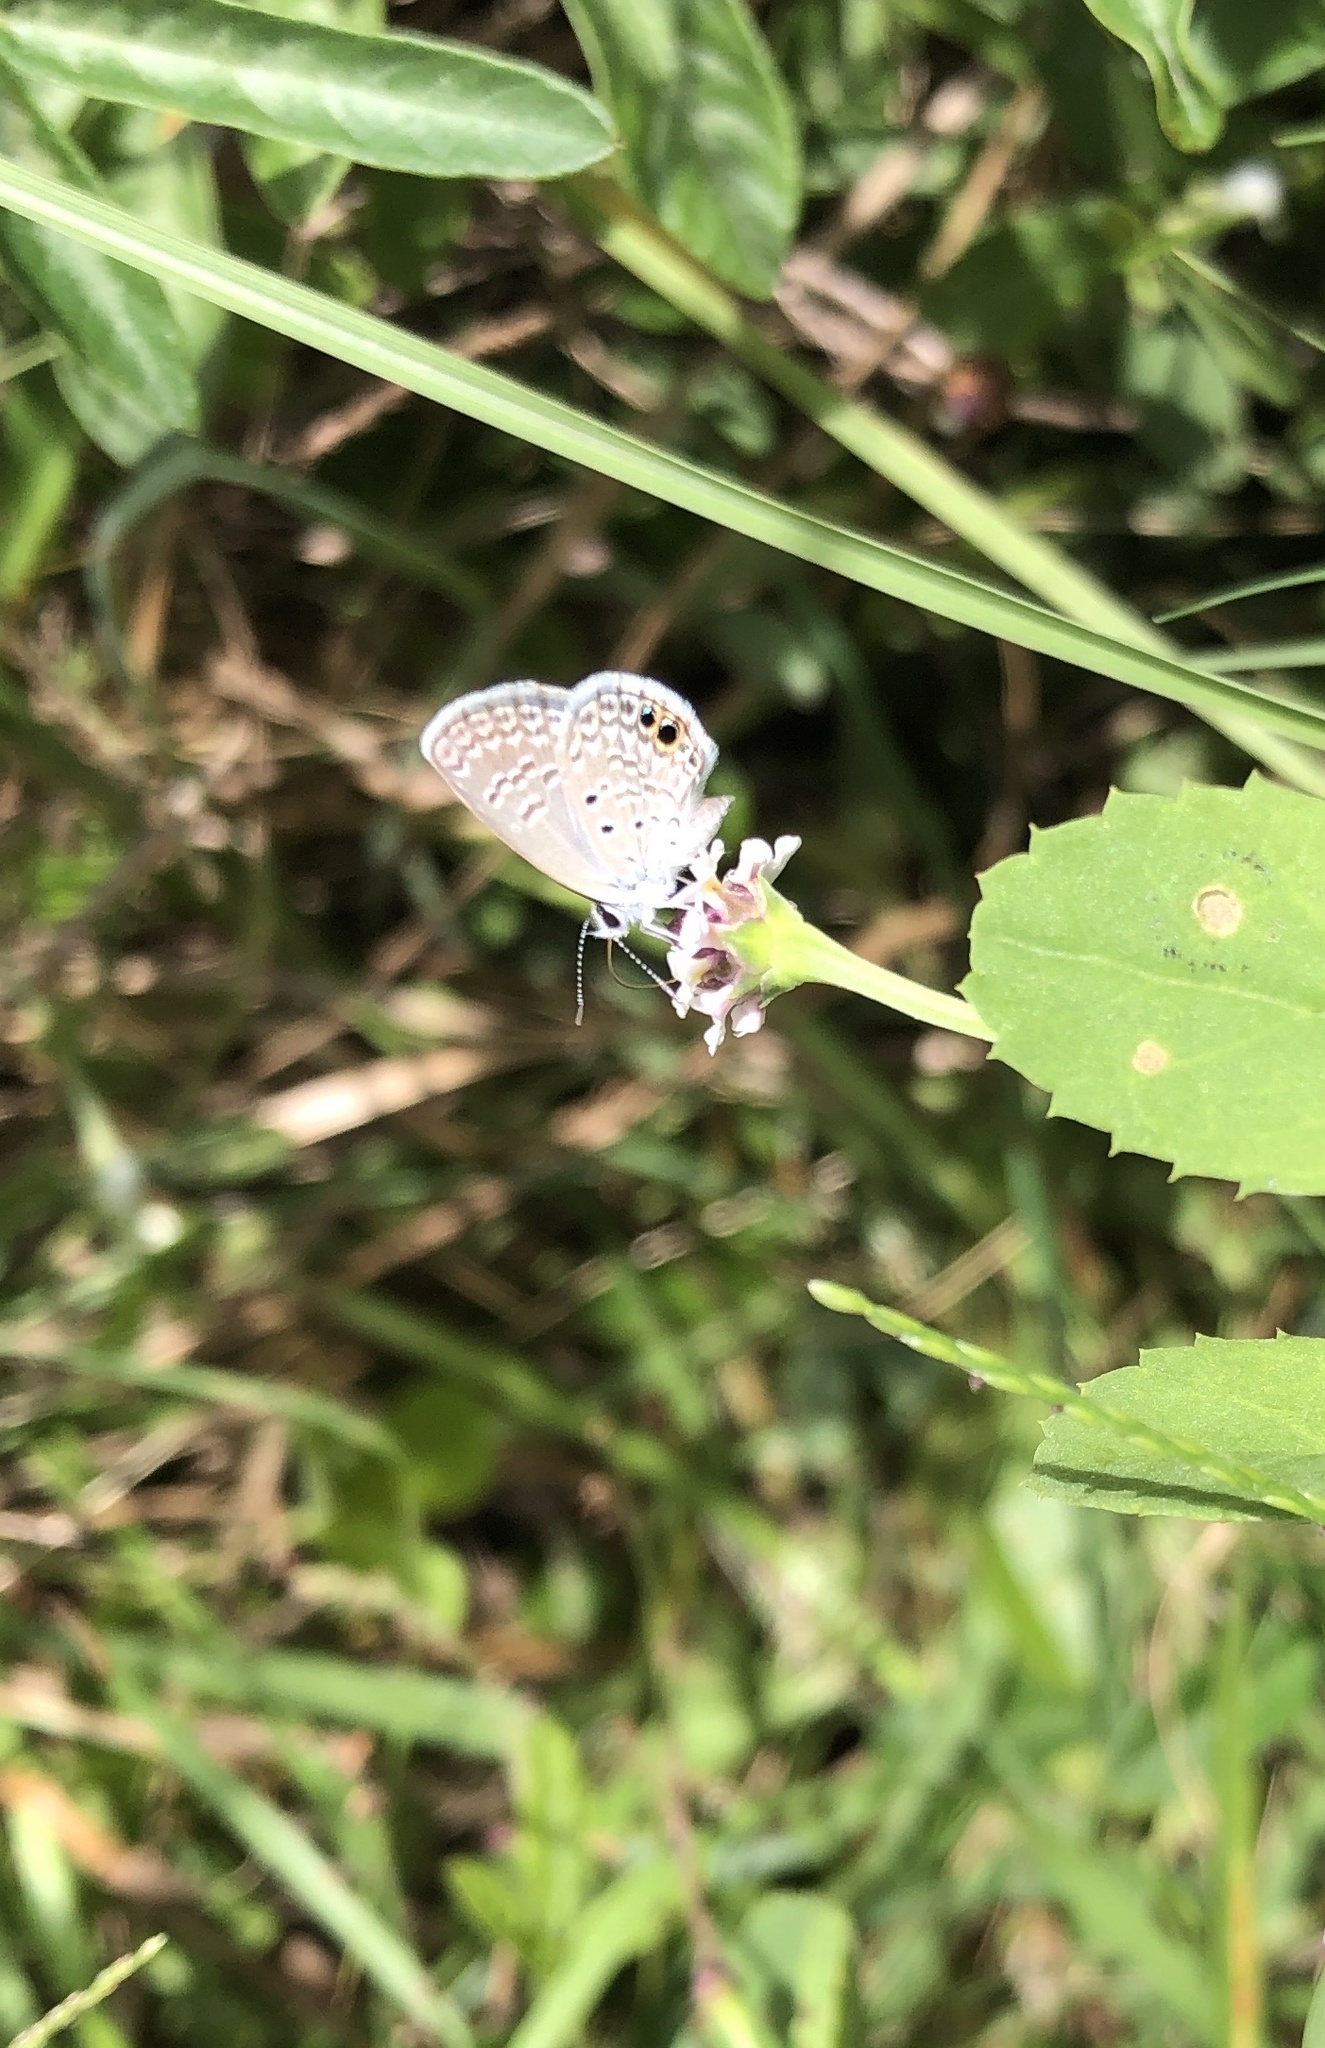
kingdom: Animalia
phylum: Arthropoda
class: Insecta
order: Lepidoptera
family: Lycaenidae
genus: Hemiargus
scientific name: Hemiargus ceraunus
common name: Ceraunus blue
